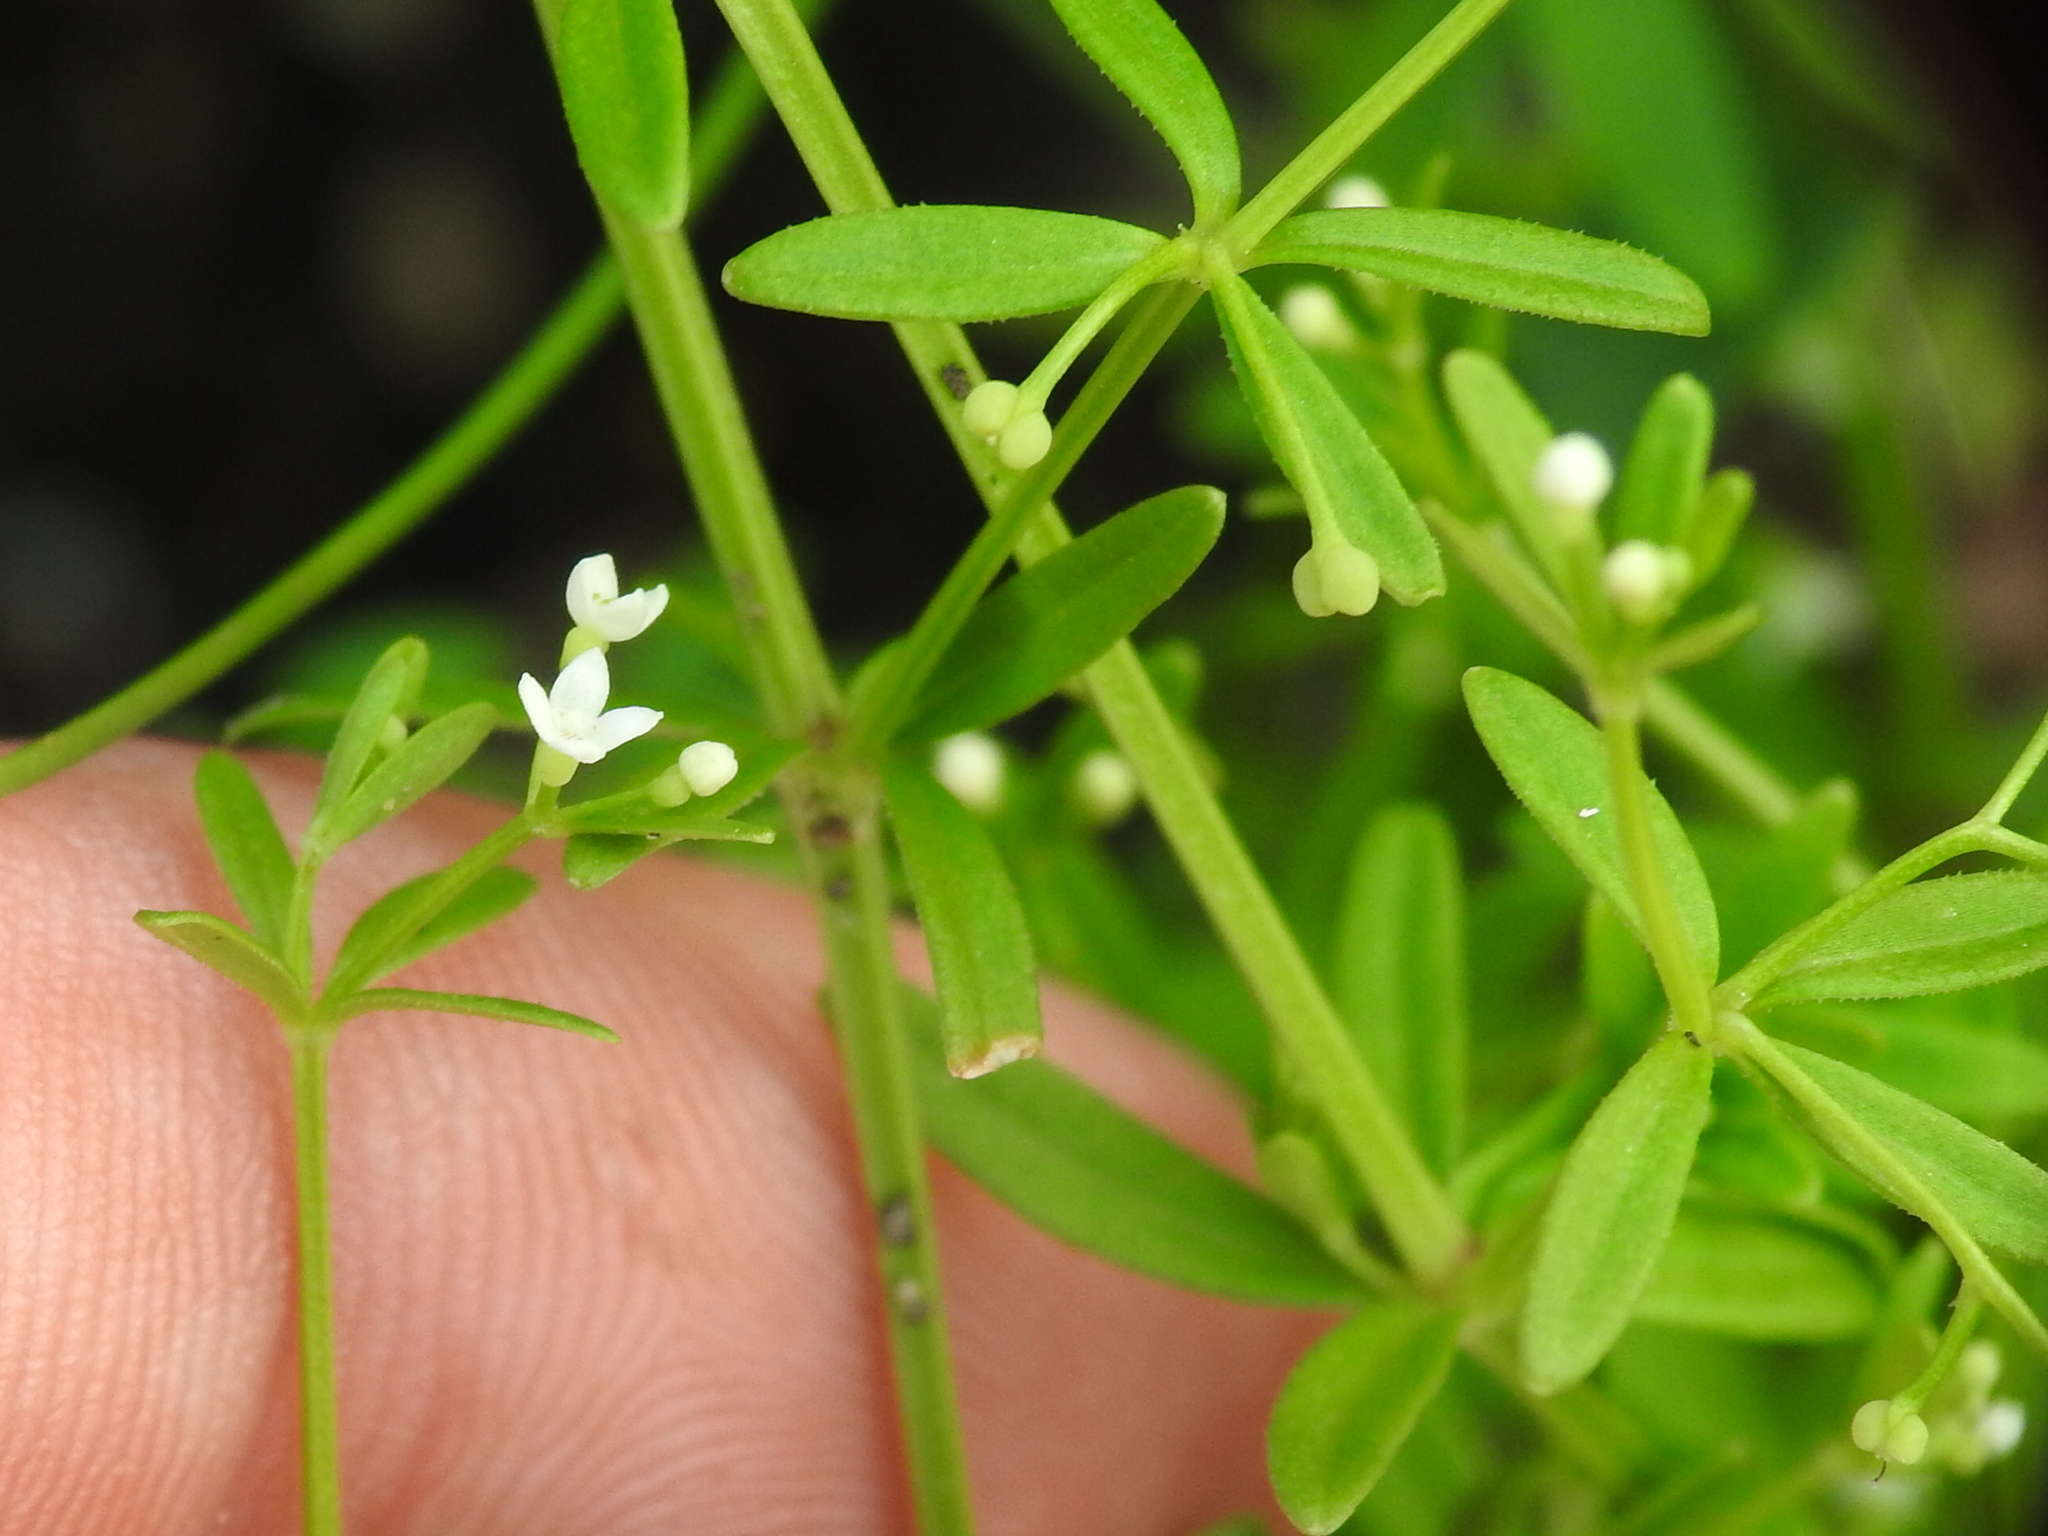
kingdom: Plantae
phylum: Tracheophyta
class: Magnoliopsida
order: Gentianales
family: Rubiaceae
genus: Galium
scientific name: Galium tinctorium
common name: Bedstraw
